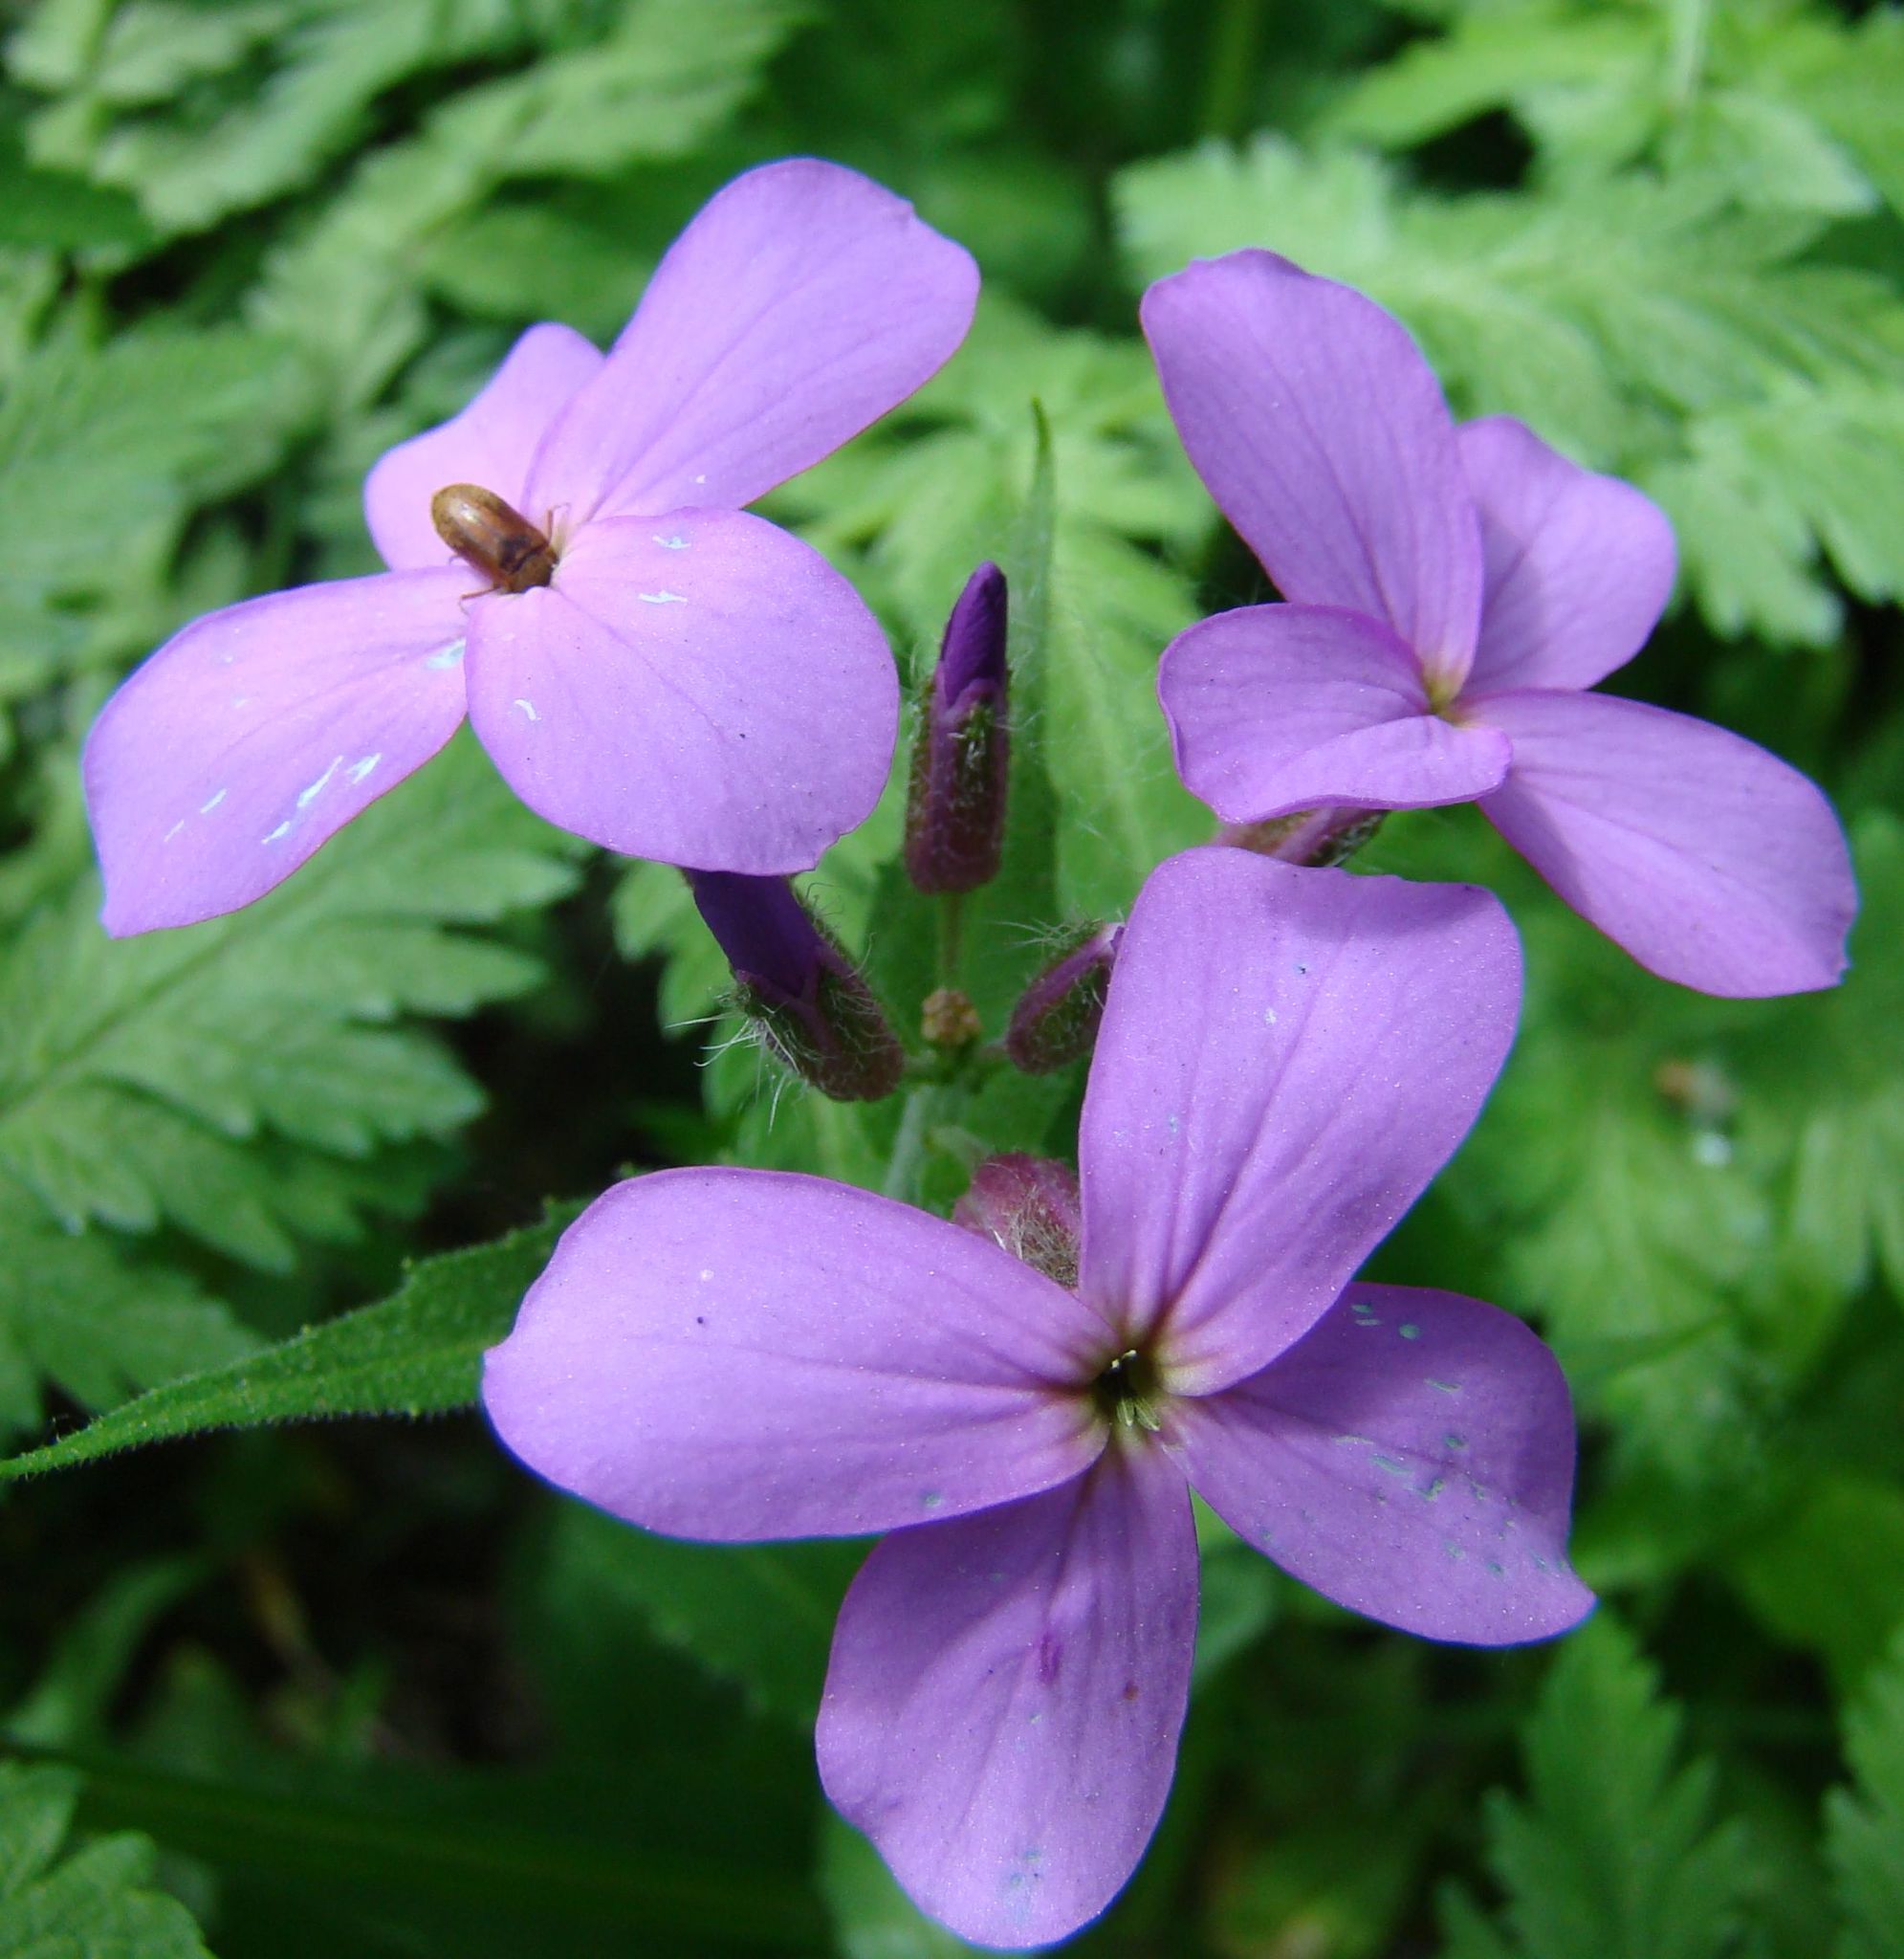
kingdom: Plantae
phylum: Tracheophyta
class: Magnoliopsida
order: Brassicales
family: Brassicaceae
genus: Hesperis
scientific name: Hesperis matronalis
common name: Dame's-violet
